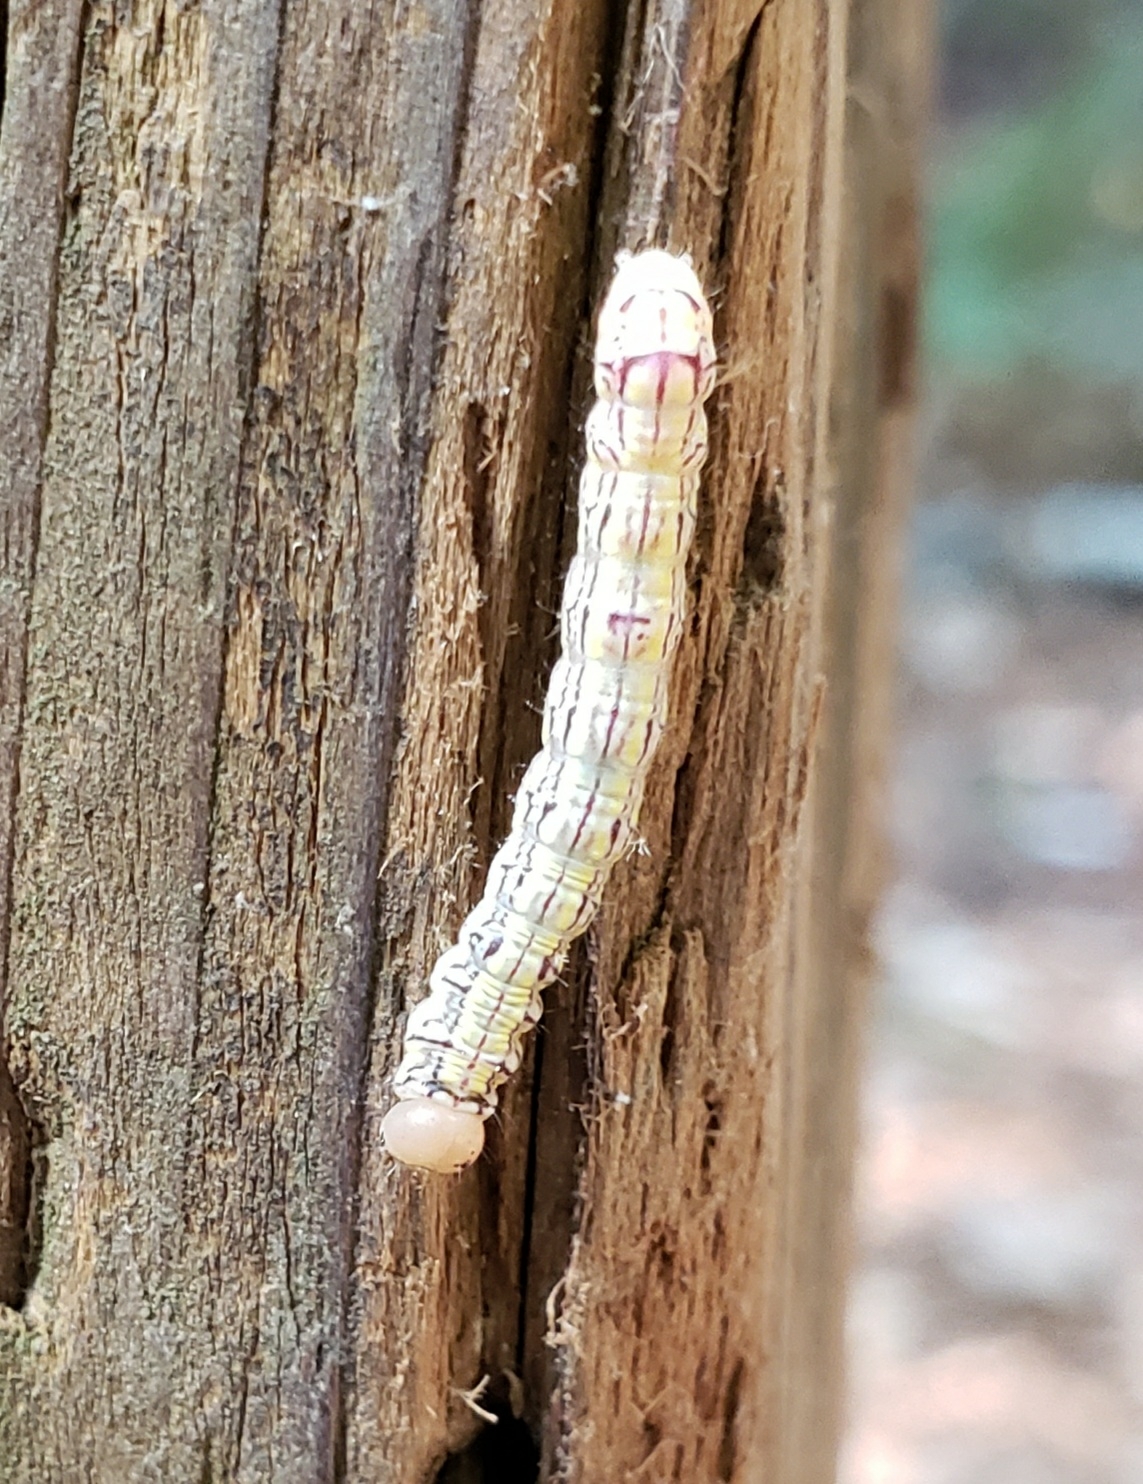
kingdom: Animalia
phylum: Arthropoda
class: Insecta
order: Lepidoptera
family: Notodontidae
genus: Phryganidia
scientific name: Phryganidia californica
